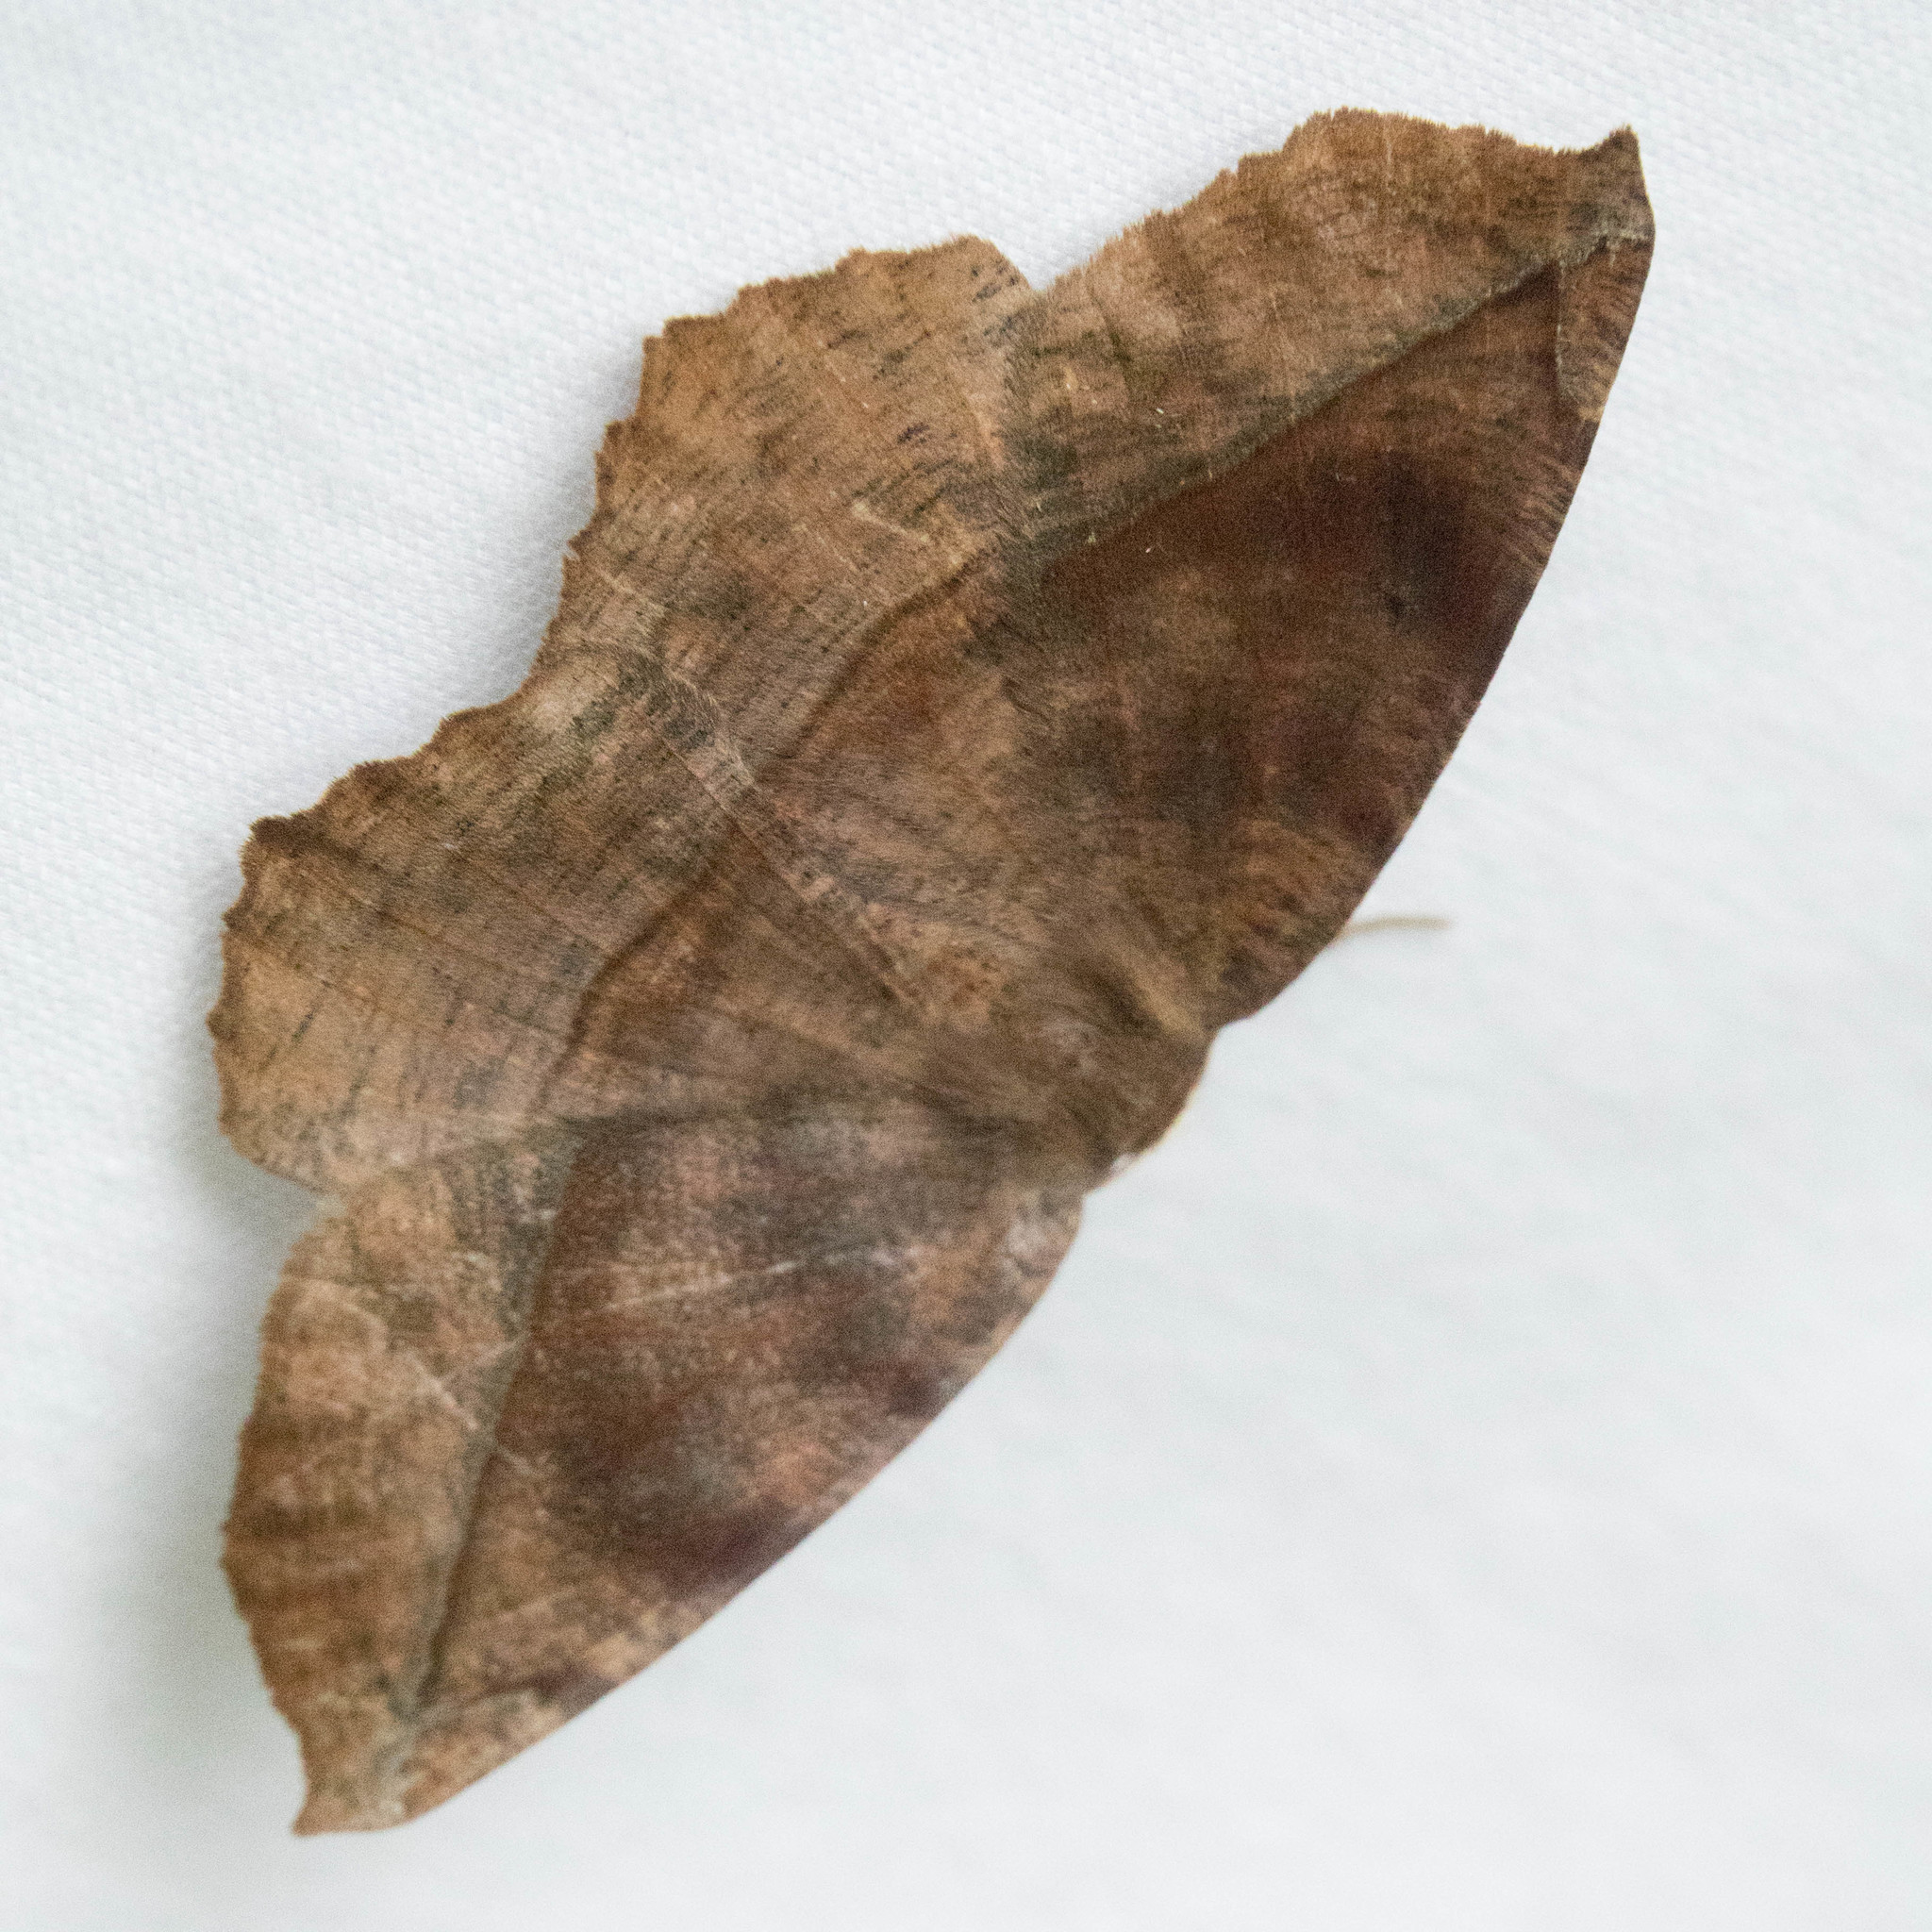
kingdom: Animalia
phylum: Arthropoda
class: Insecta
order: Lepidoptera
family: Geometridae
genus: Eutrapela
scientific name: Eutrapela clemataria
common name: Curved-toothed geometer
